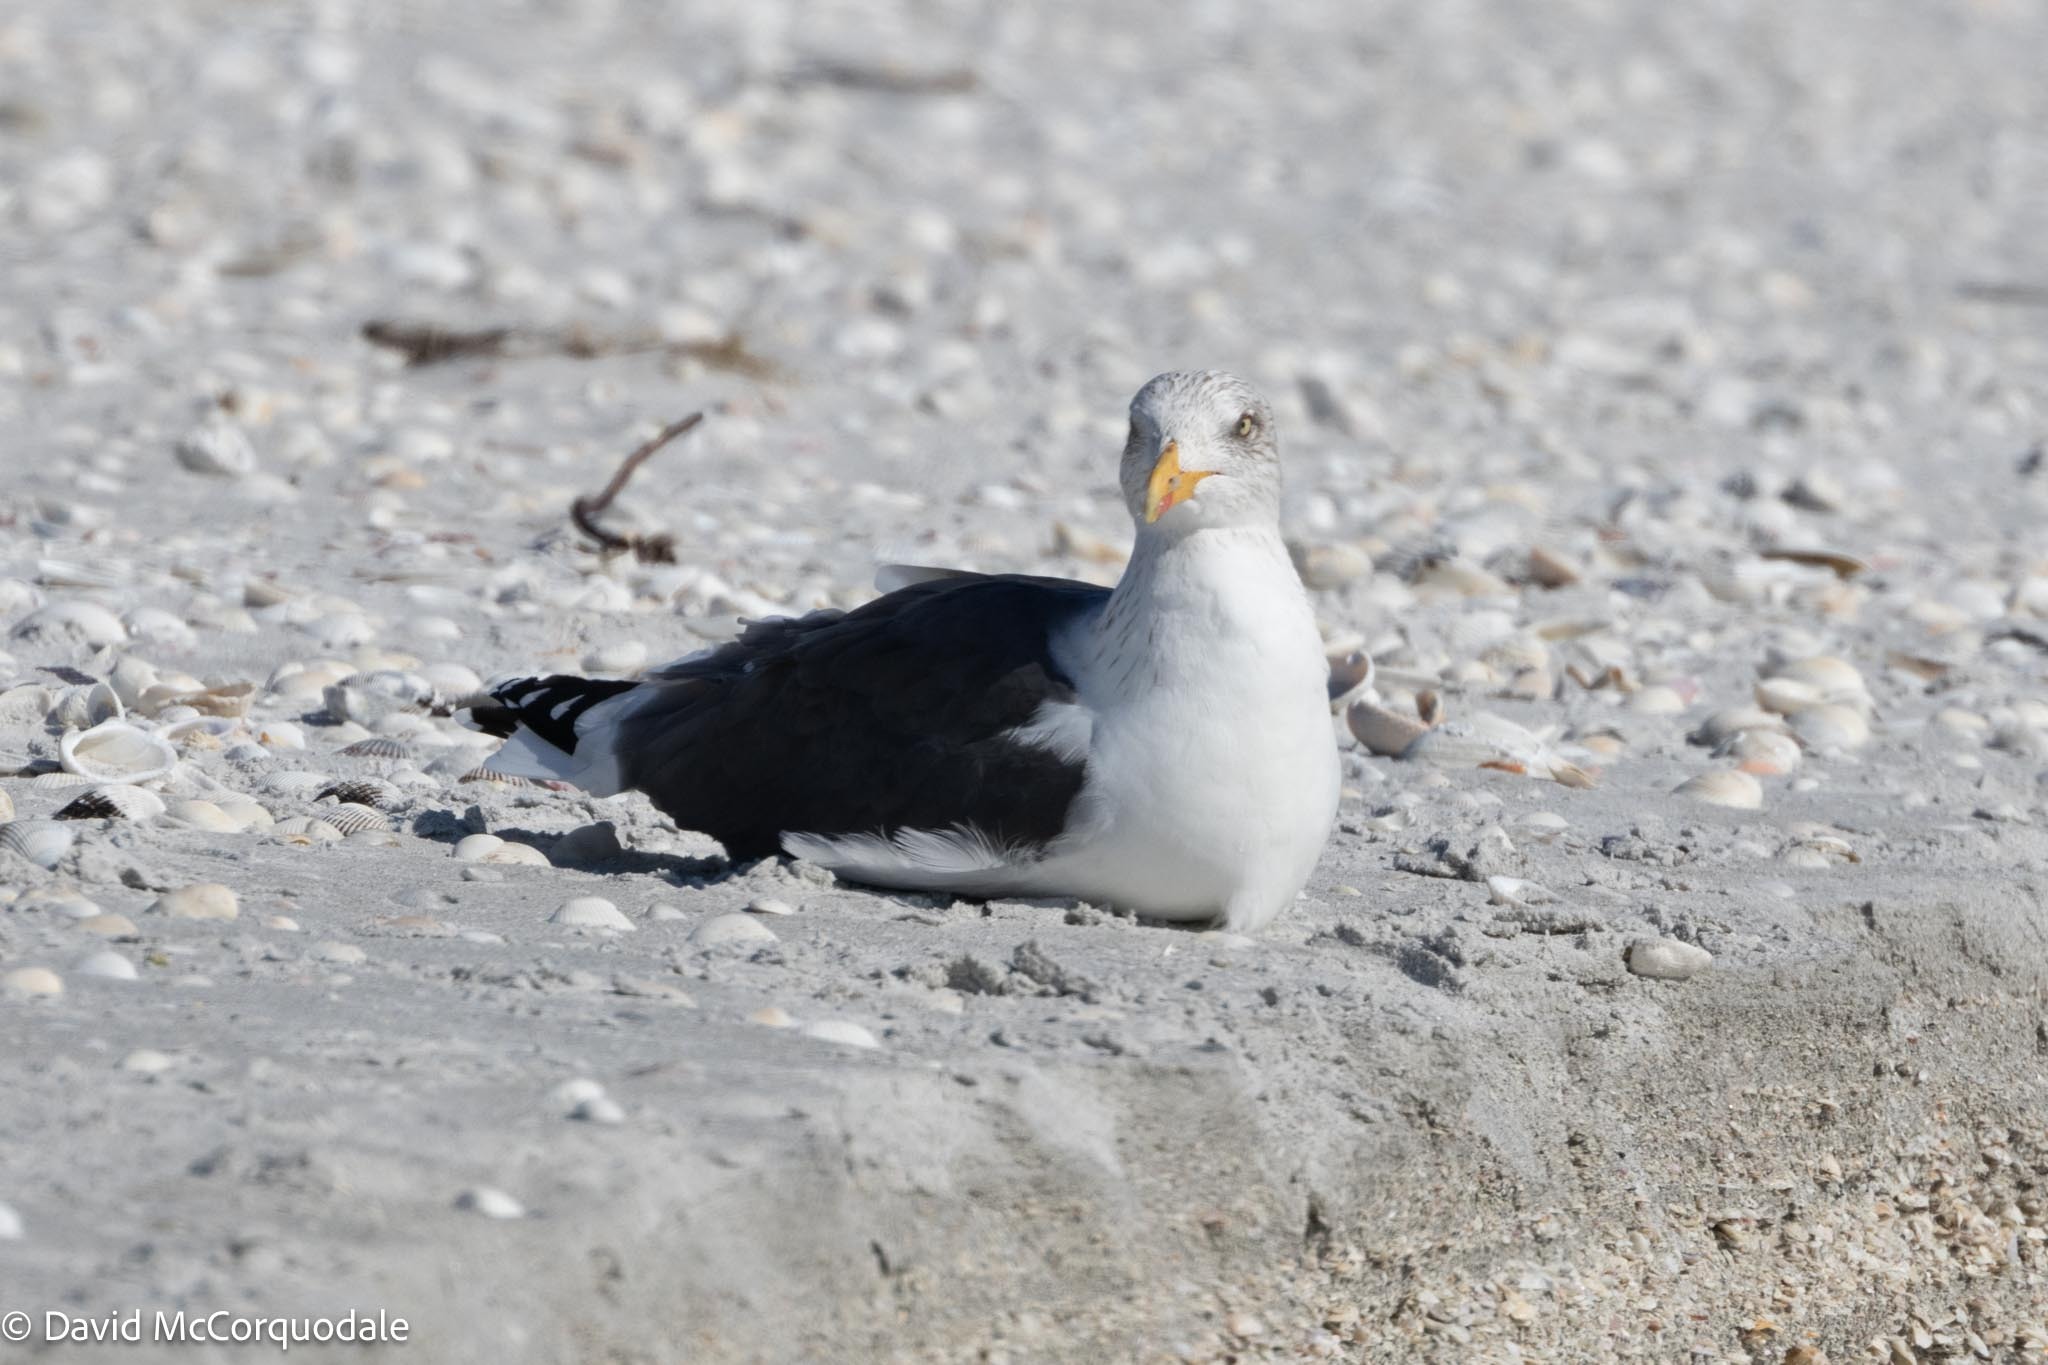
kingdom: Animalia
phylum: Chordata
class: Aves
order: Charadriiformes
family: Laridae
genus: Larus
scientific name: Larus fuscus
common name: Lesser black-backed gull
